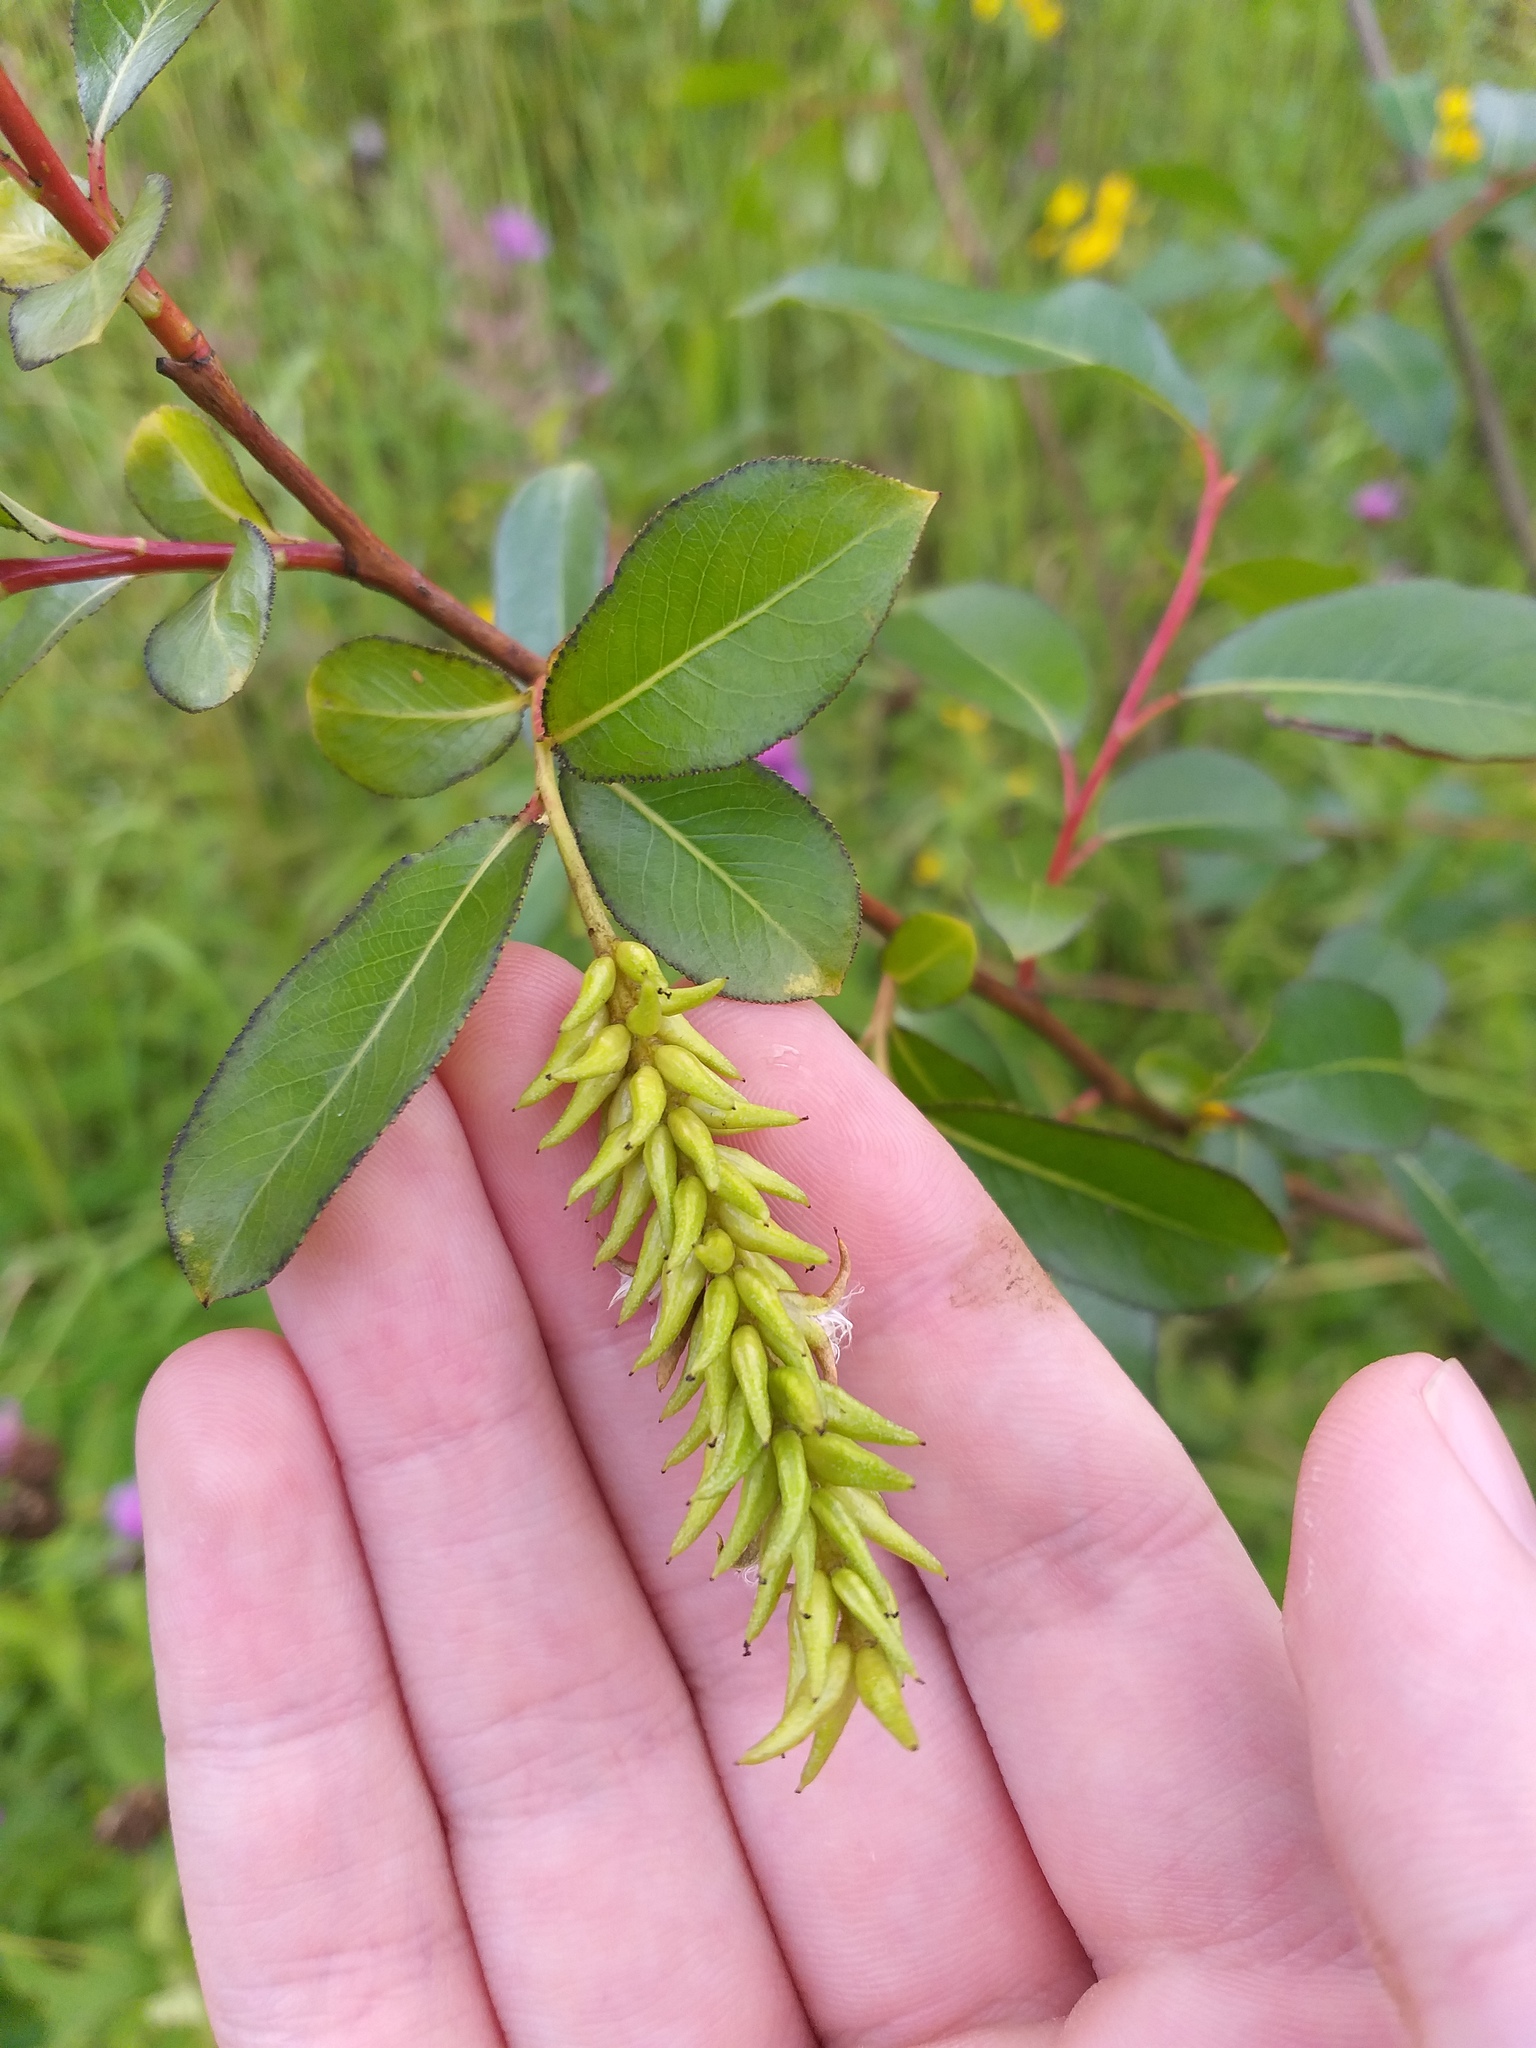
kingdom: Plantae
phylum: Tracheophyta
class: Magnoliopsida
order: Malpighiales
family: Salicaceae
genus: Salix
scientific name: Salix pentandra
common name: Bay willow
